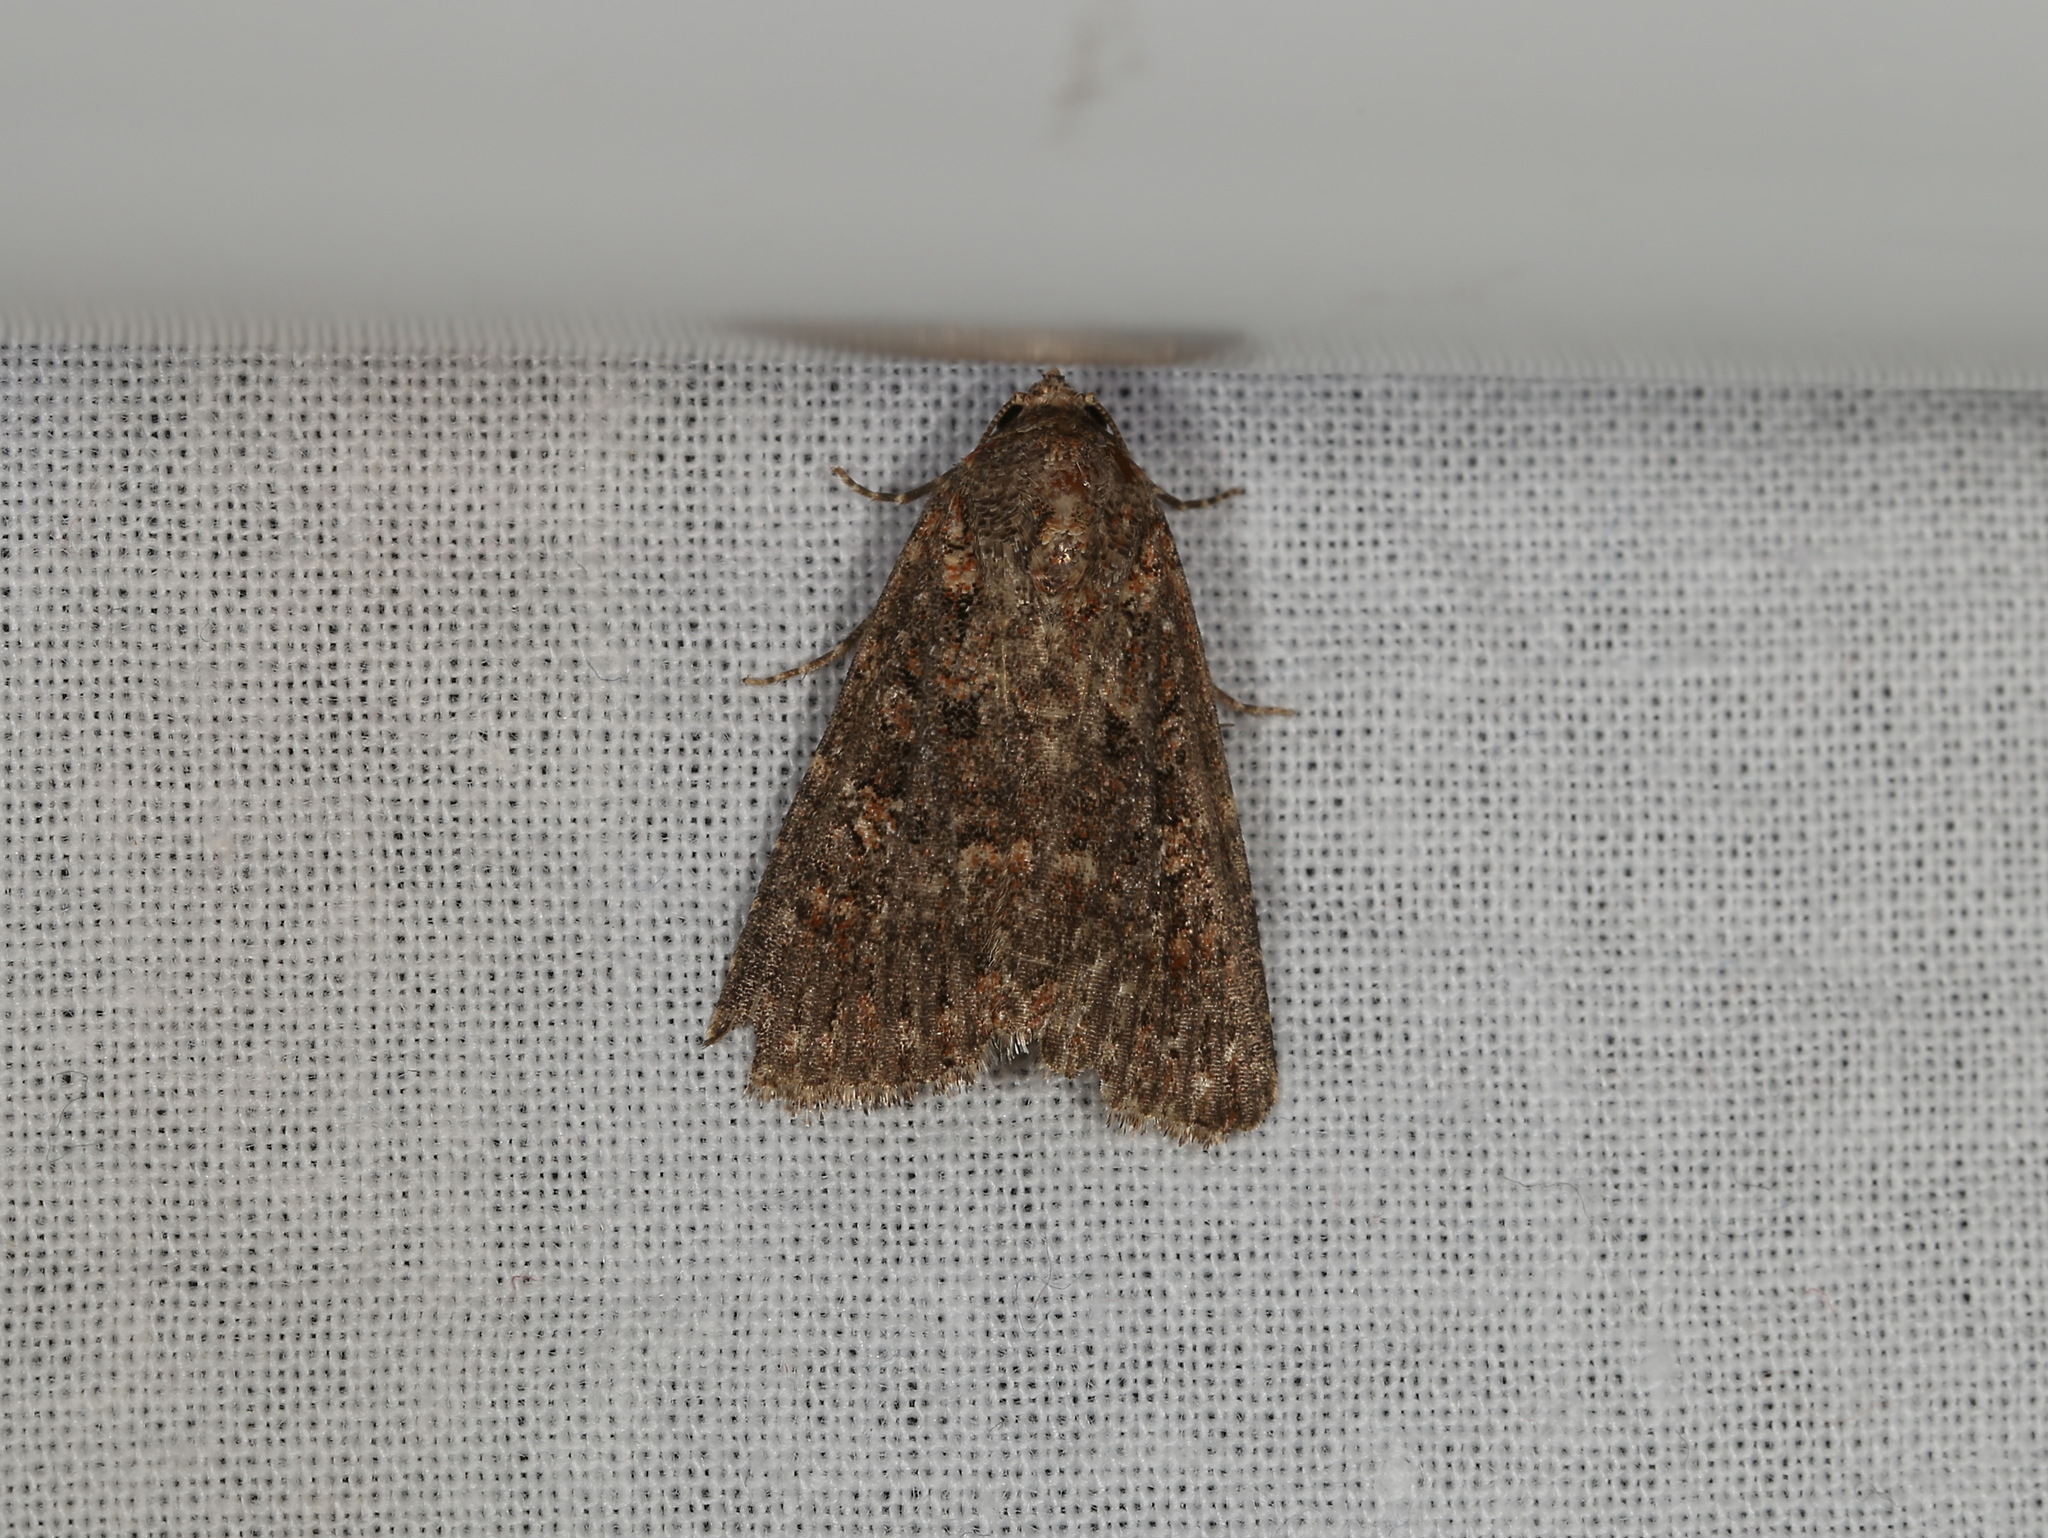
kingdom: Animalia
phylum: Arthropoda
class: Insecta
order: Lepidoptera
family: Noctuidae
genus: Hypoperigea
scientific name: Hypoperigea tonsa
